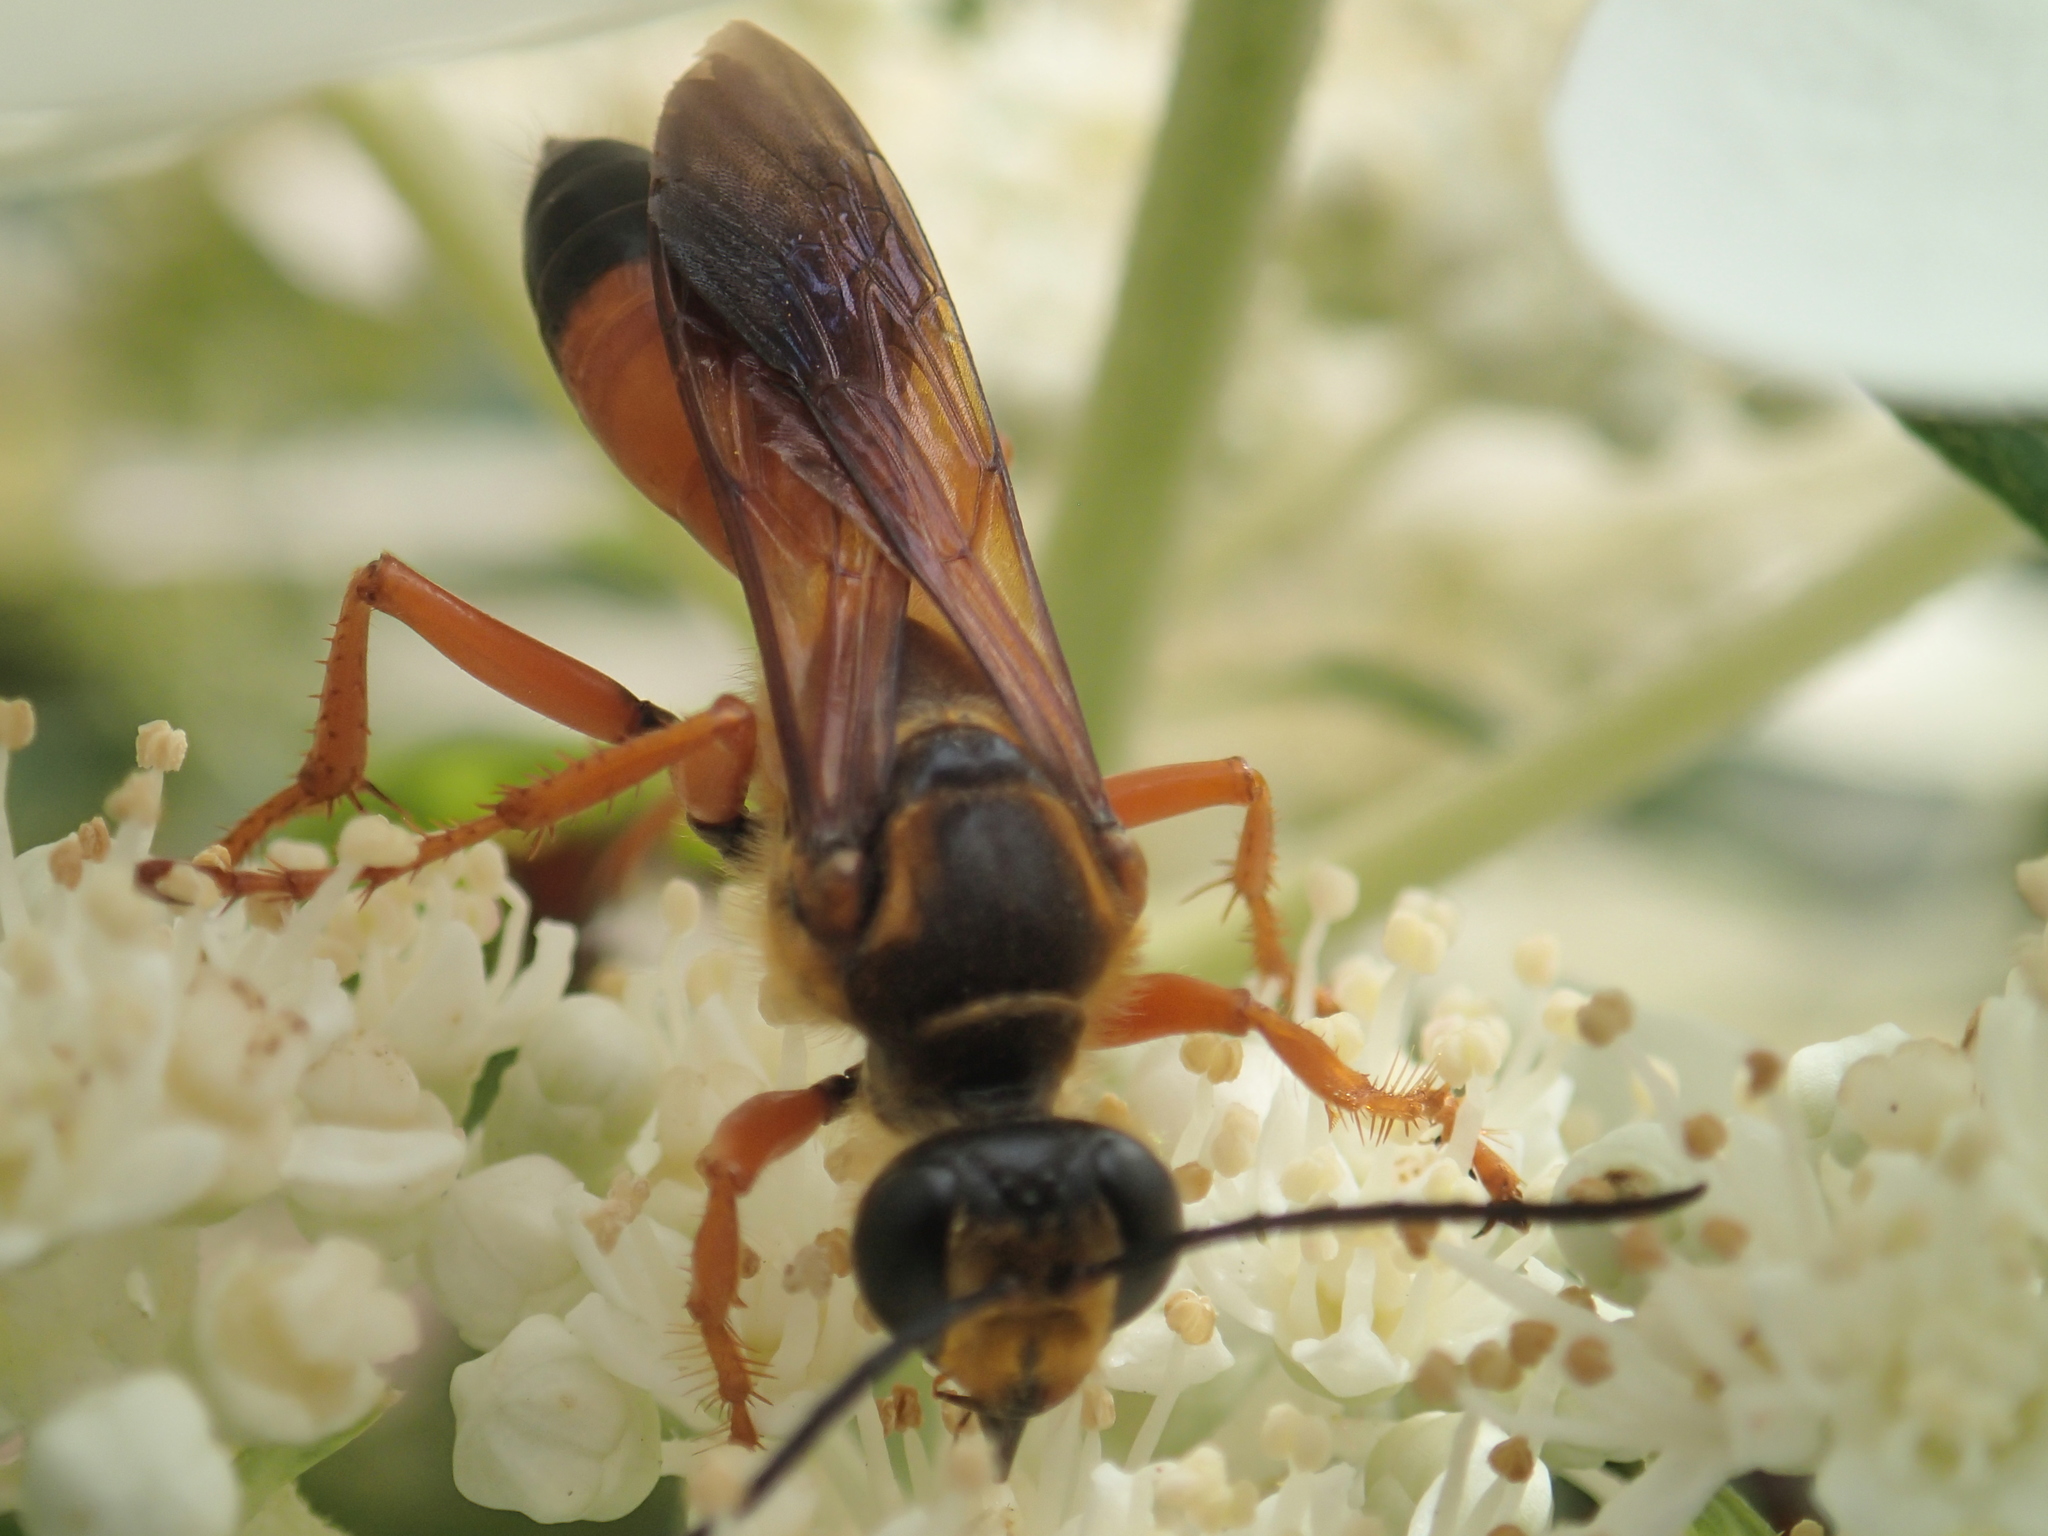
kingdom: Animalia
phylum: Arthropoda
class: Insecta
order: Hymenoptera
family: Sphecidae
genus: Sphex
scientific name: Sphex ichneumoneus
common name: Great golden digger wasp
